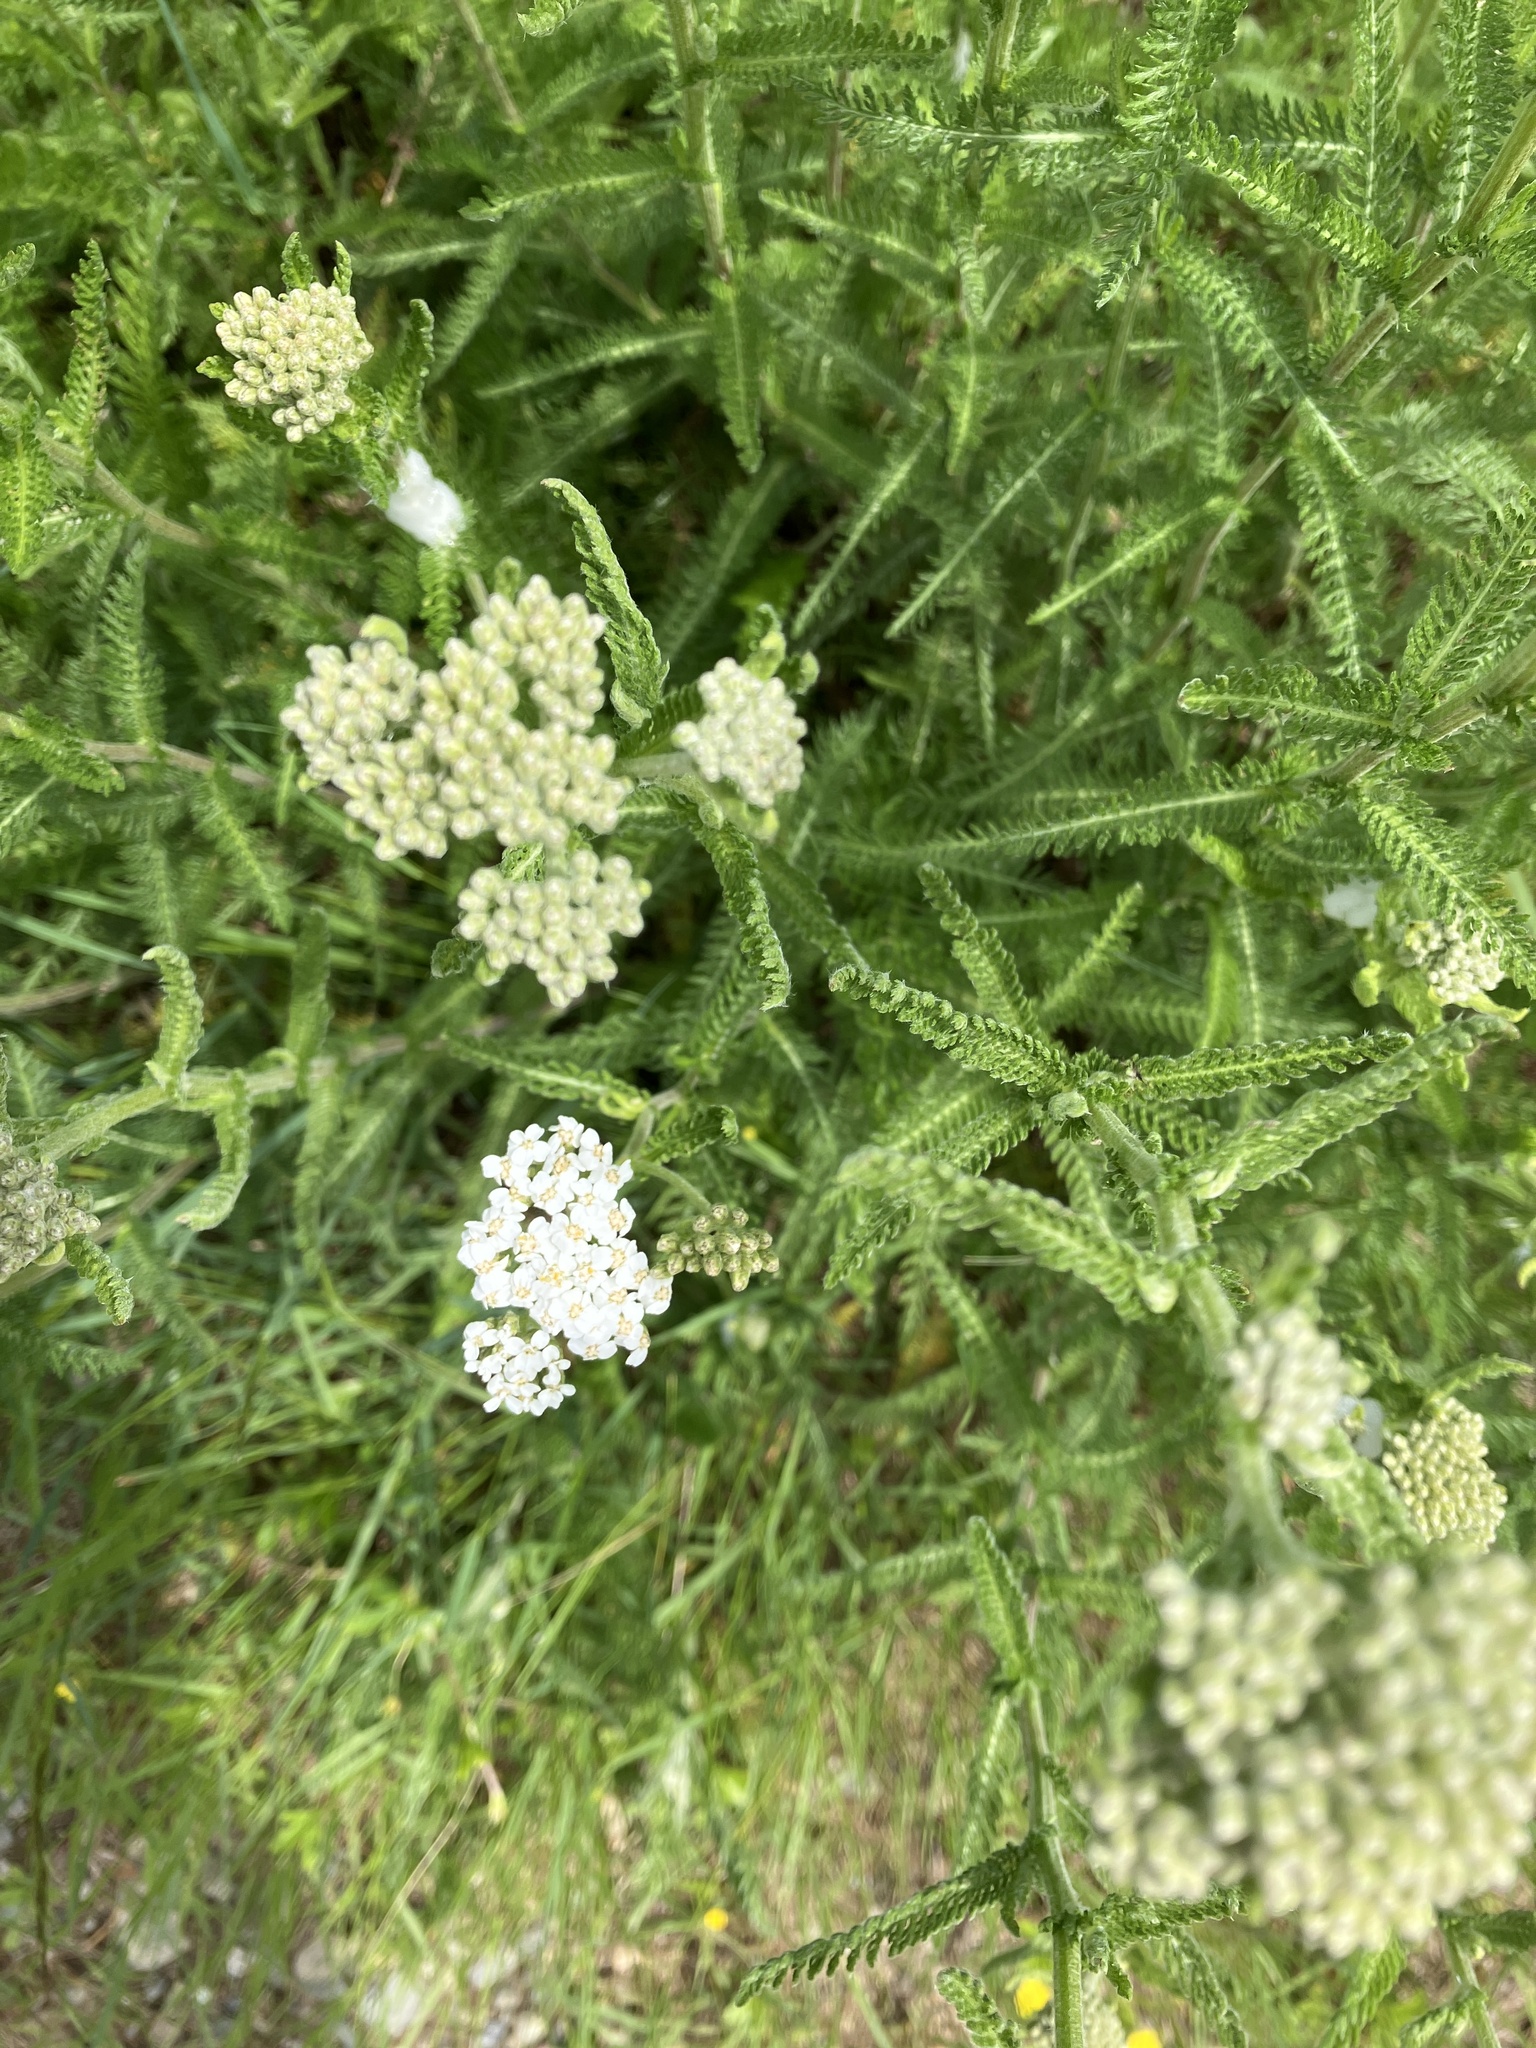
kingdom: Plantae
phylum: Tracheophyta
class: Magnoliopsida
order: Asterales
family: Asteraceae
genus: Achillea
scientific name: Achillea millefolium
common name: Yarrow
